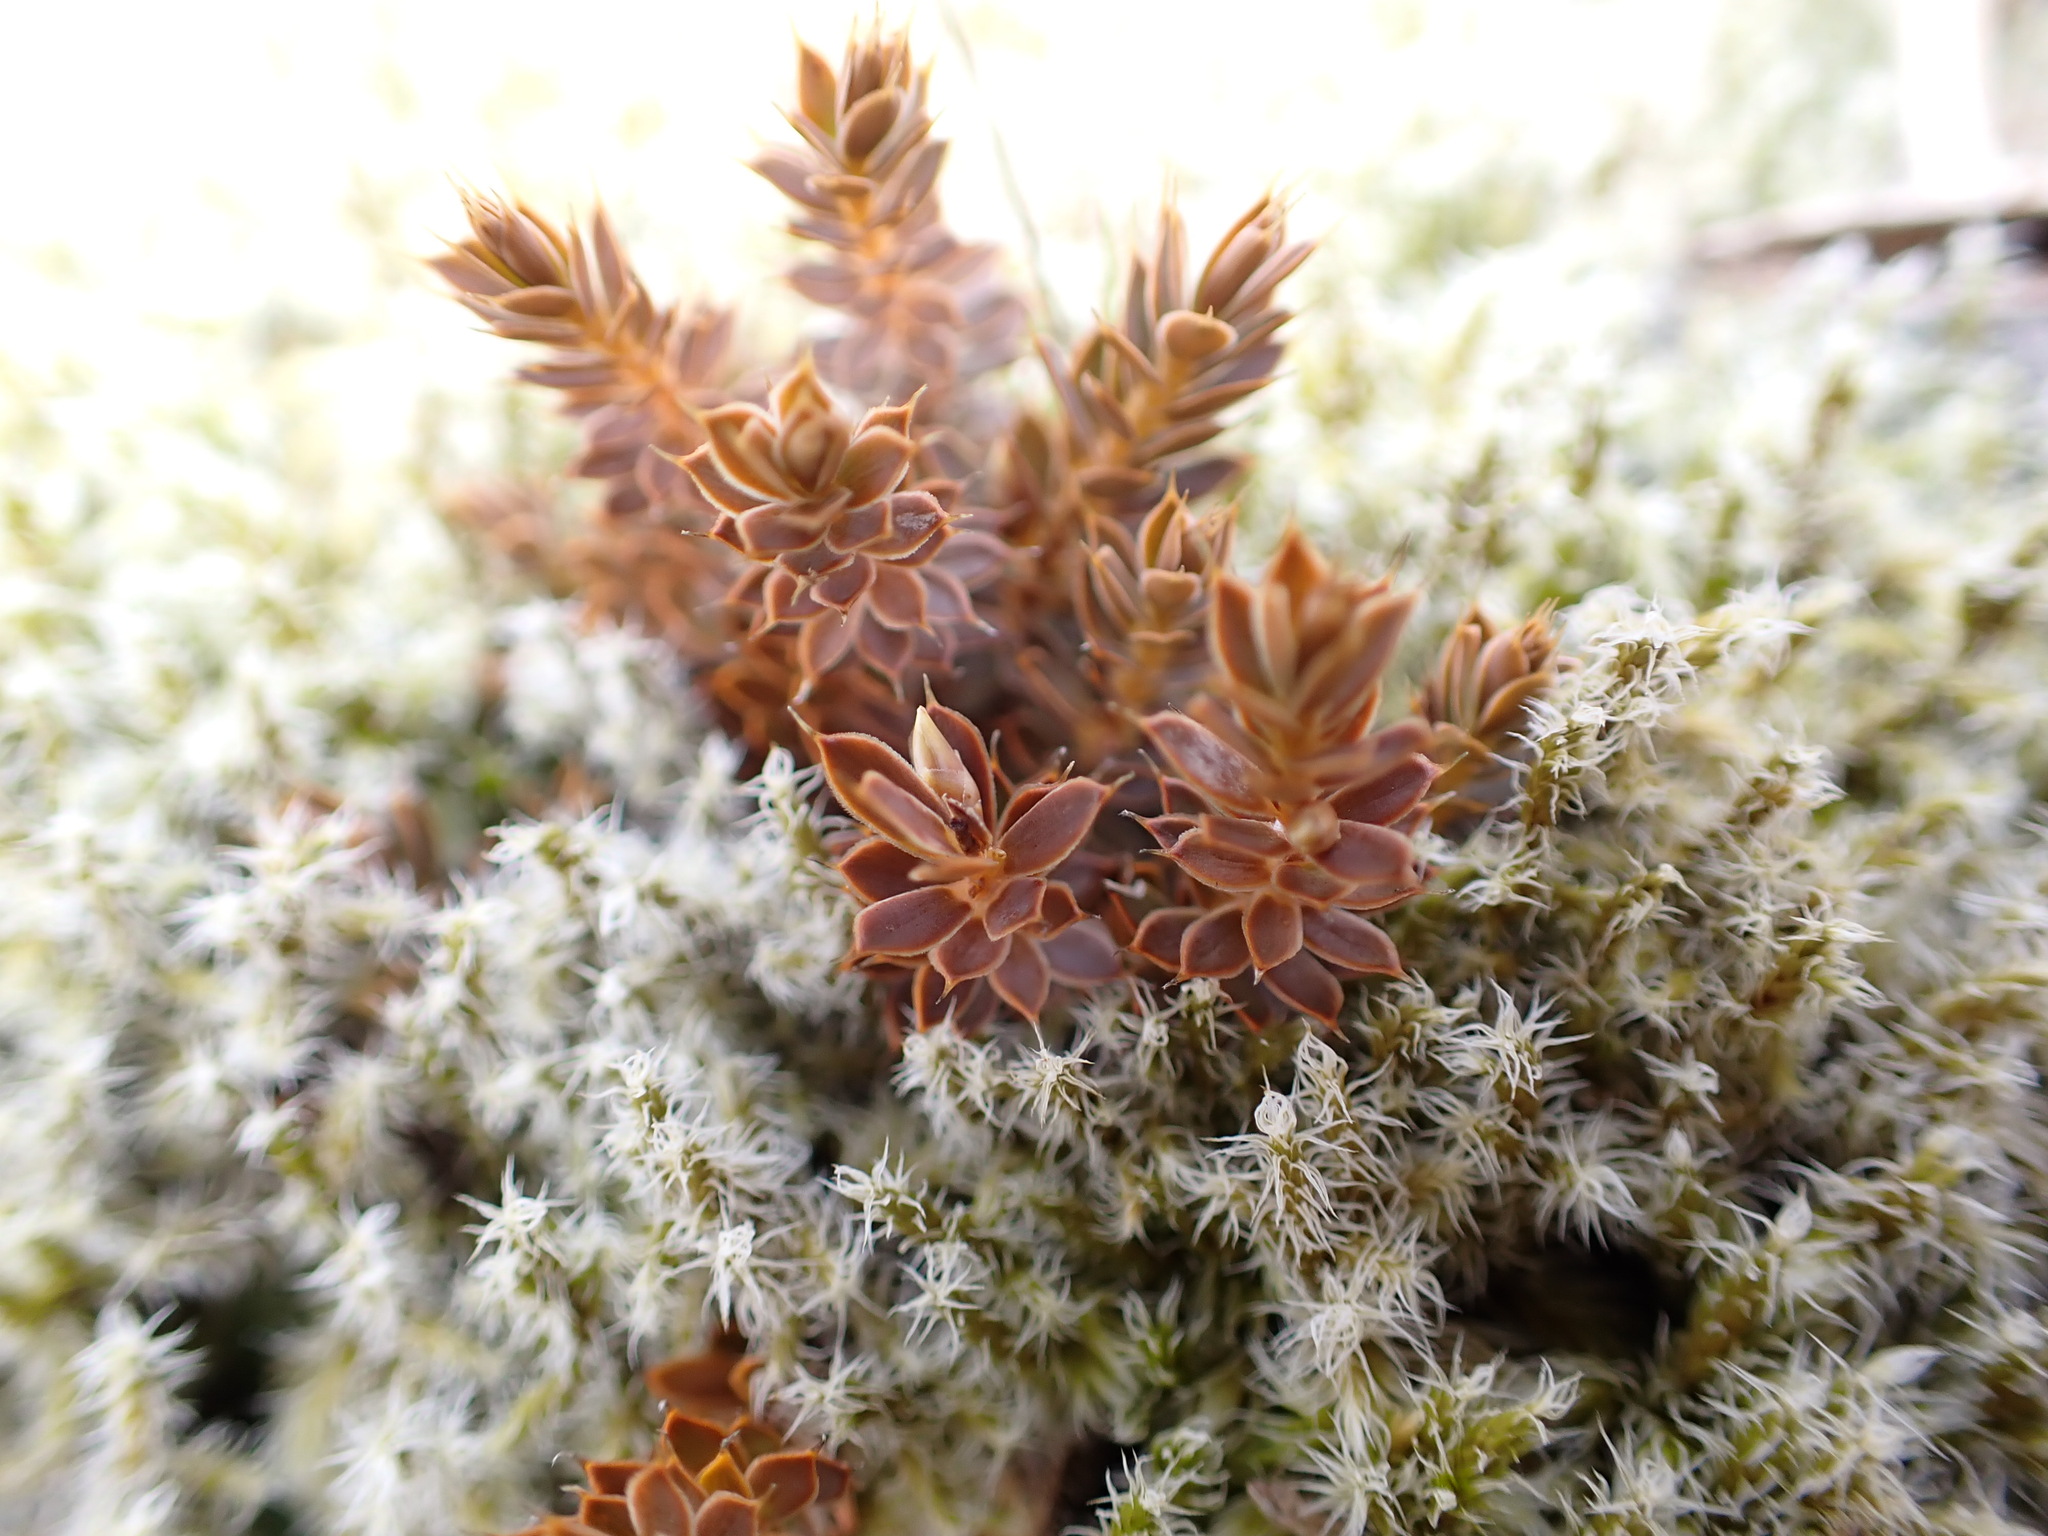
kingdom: Plantae
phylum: Tracheophyta
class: Magnoliopsida
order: Ericales
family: Ericaceae
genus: Styphelia
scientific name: Styphelia nesophila
